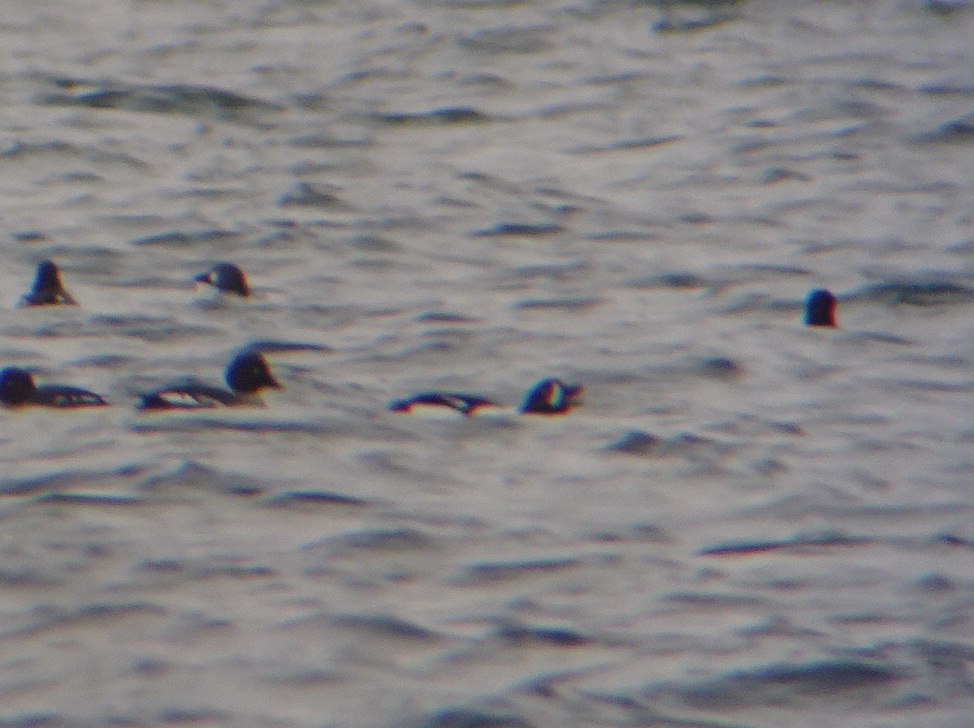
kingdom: Animalia
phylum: Chordata
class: Aves
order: Anseriformes
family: Anatidae
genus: Bucephala
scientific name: Bucephala islandica
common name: Barrow's goldeneye
